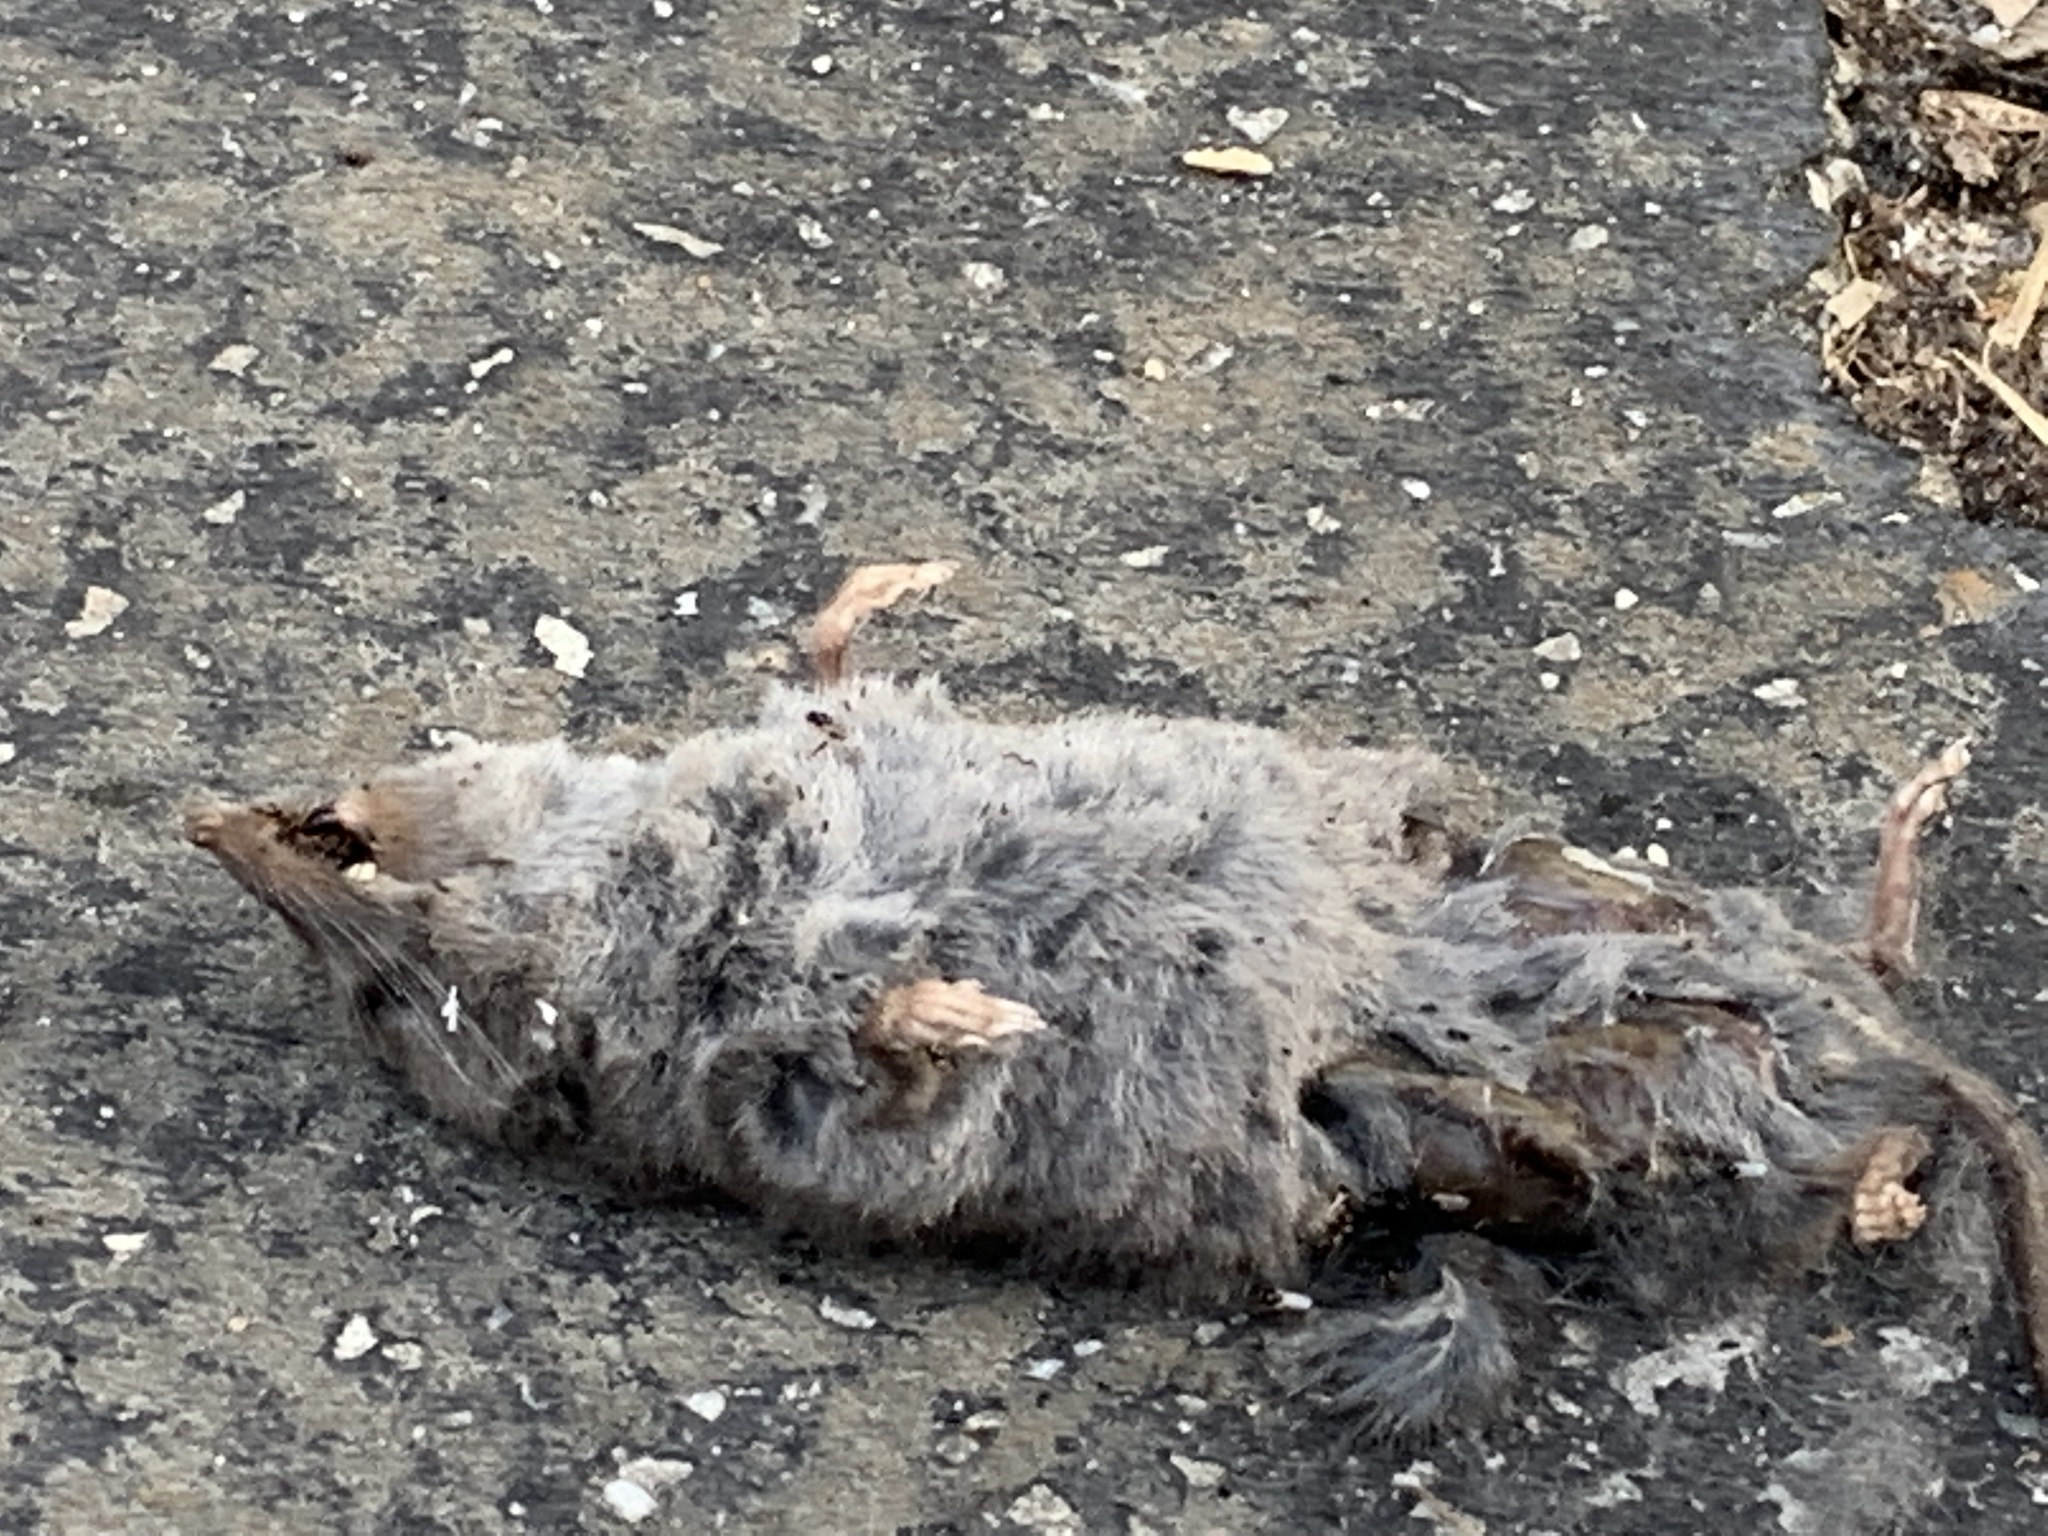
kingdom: Animalia
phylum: Chordata
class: Mammalia
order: Soricomorpha
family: Soricidae
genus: Blarina
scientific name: Blarina brevicauda
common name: Northern short-tailed shrew
